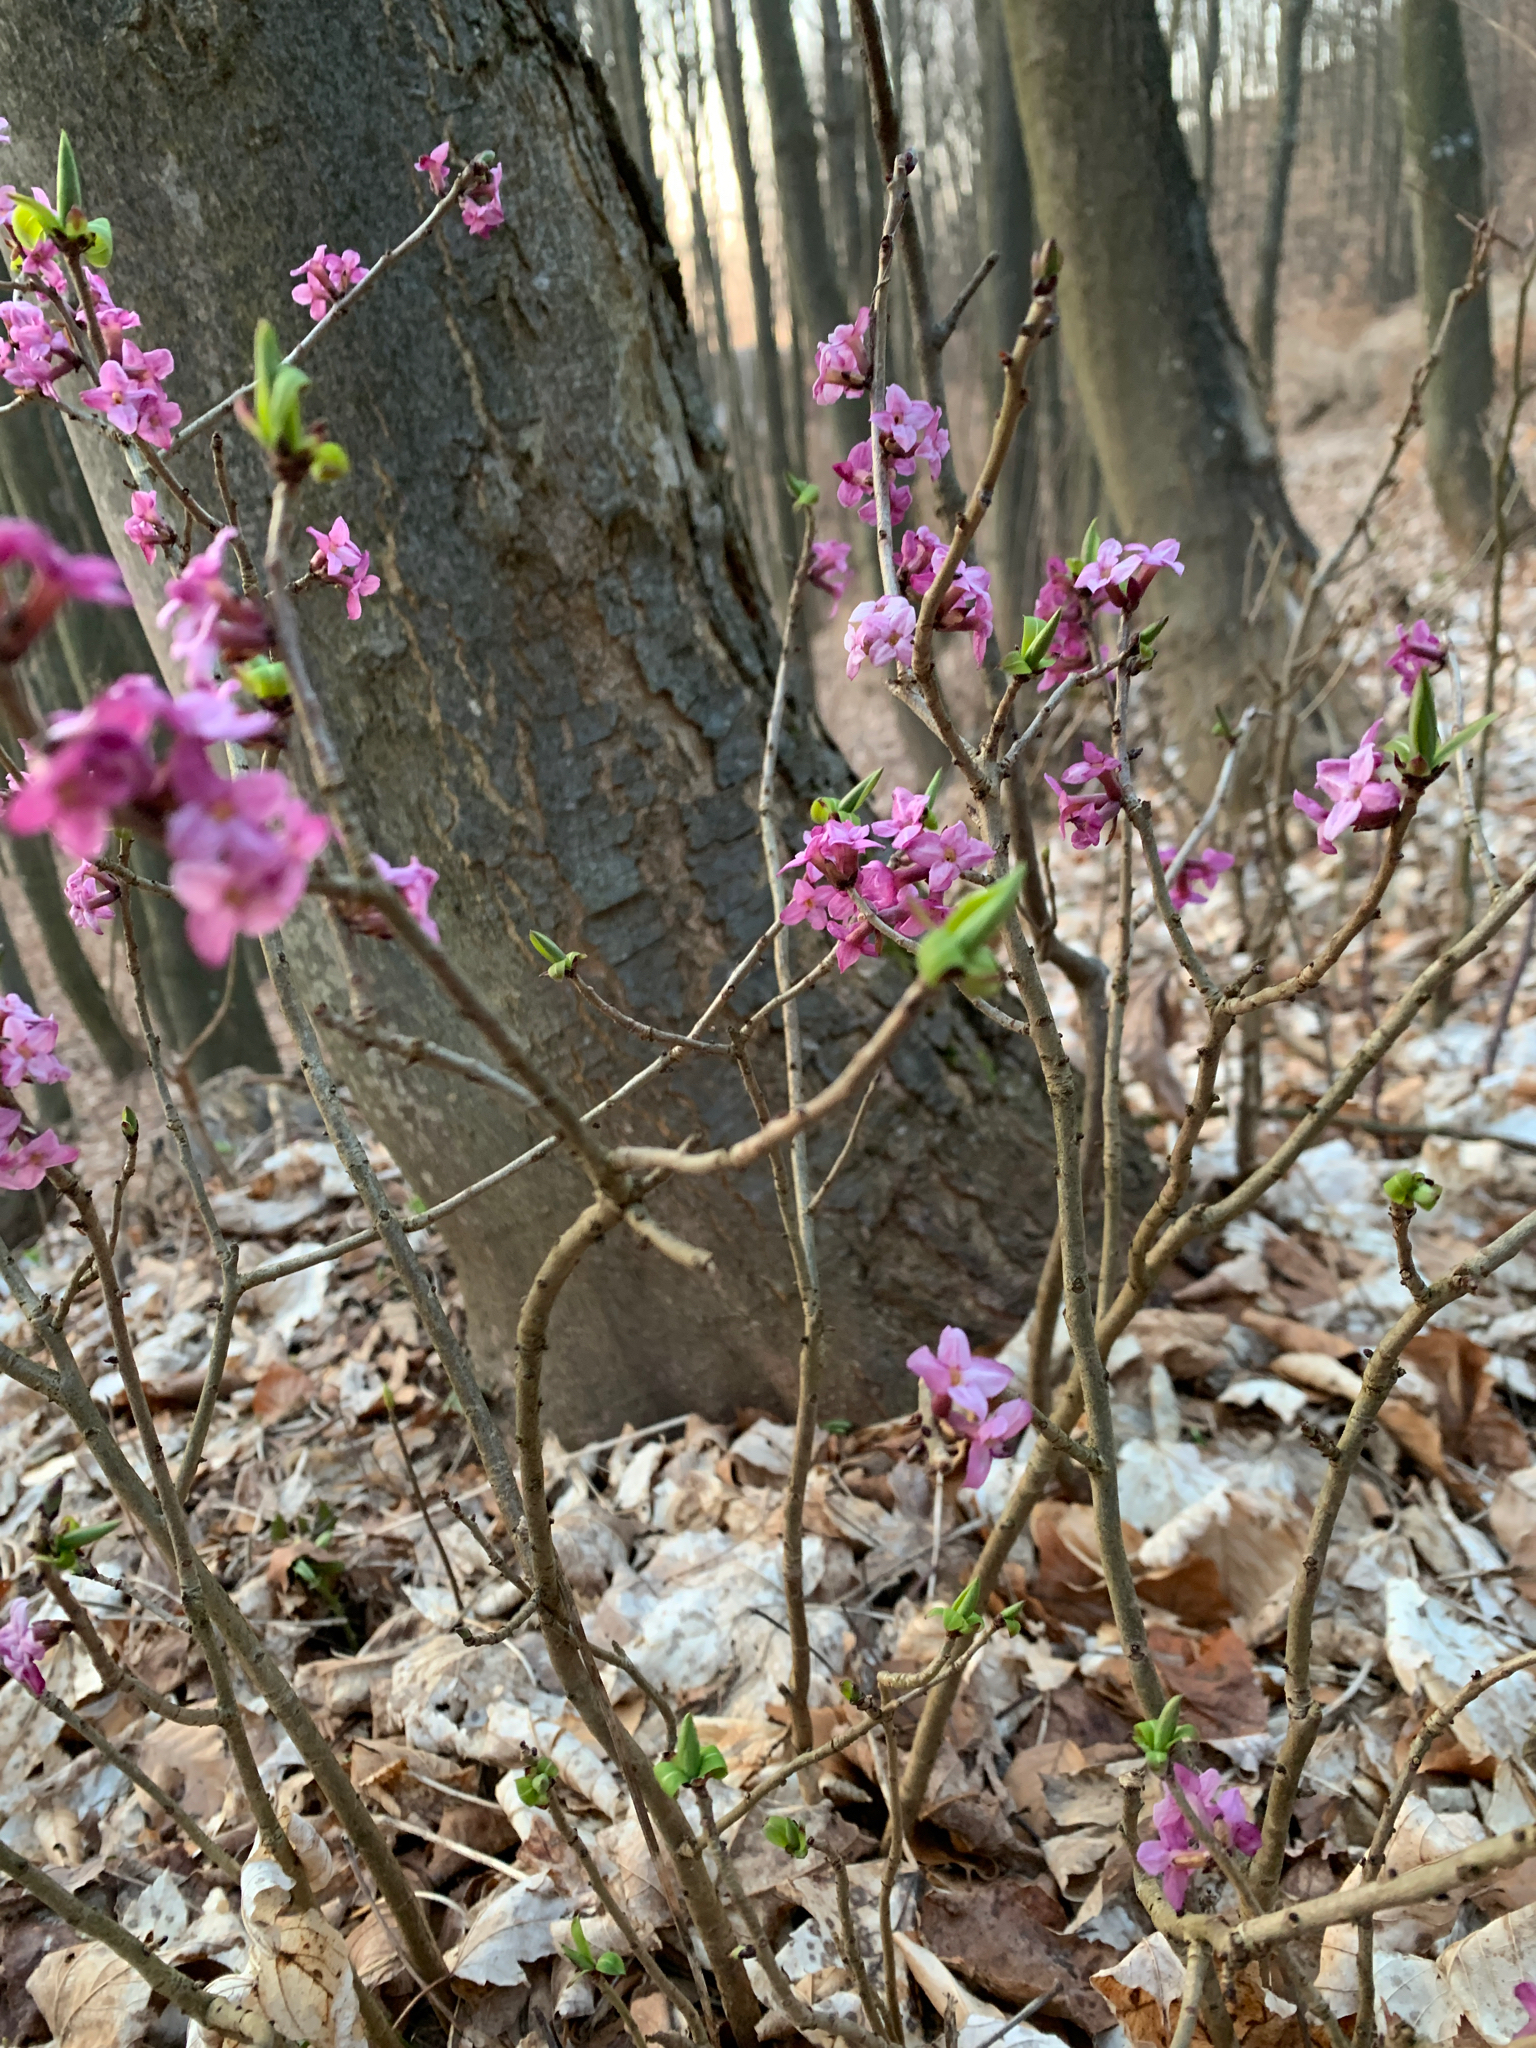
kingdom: Plantae
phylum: Tracheophyta
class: Magnoliopsida
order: Malvales
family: Thymelaeaceae
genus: Daphne
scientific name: Daphne mezereum
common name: Mezereon
